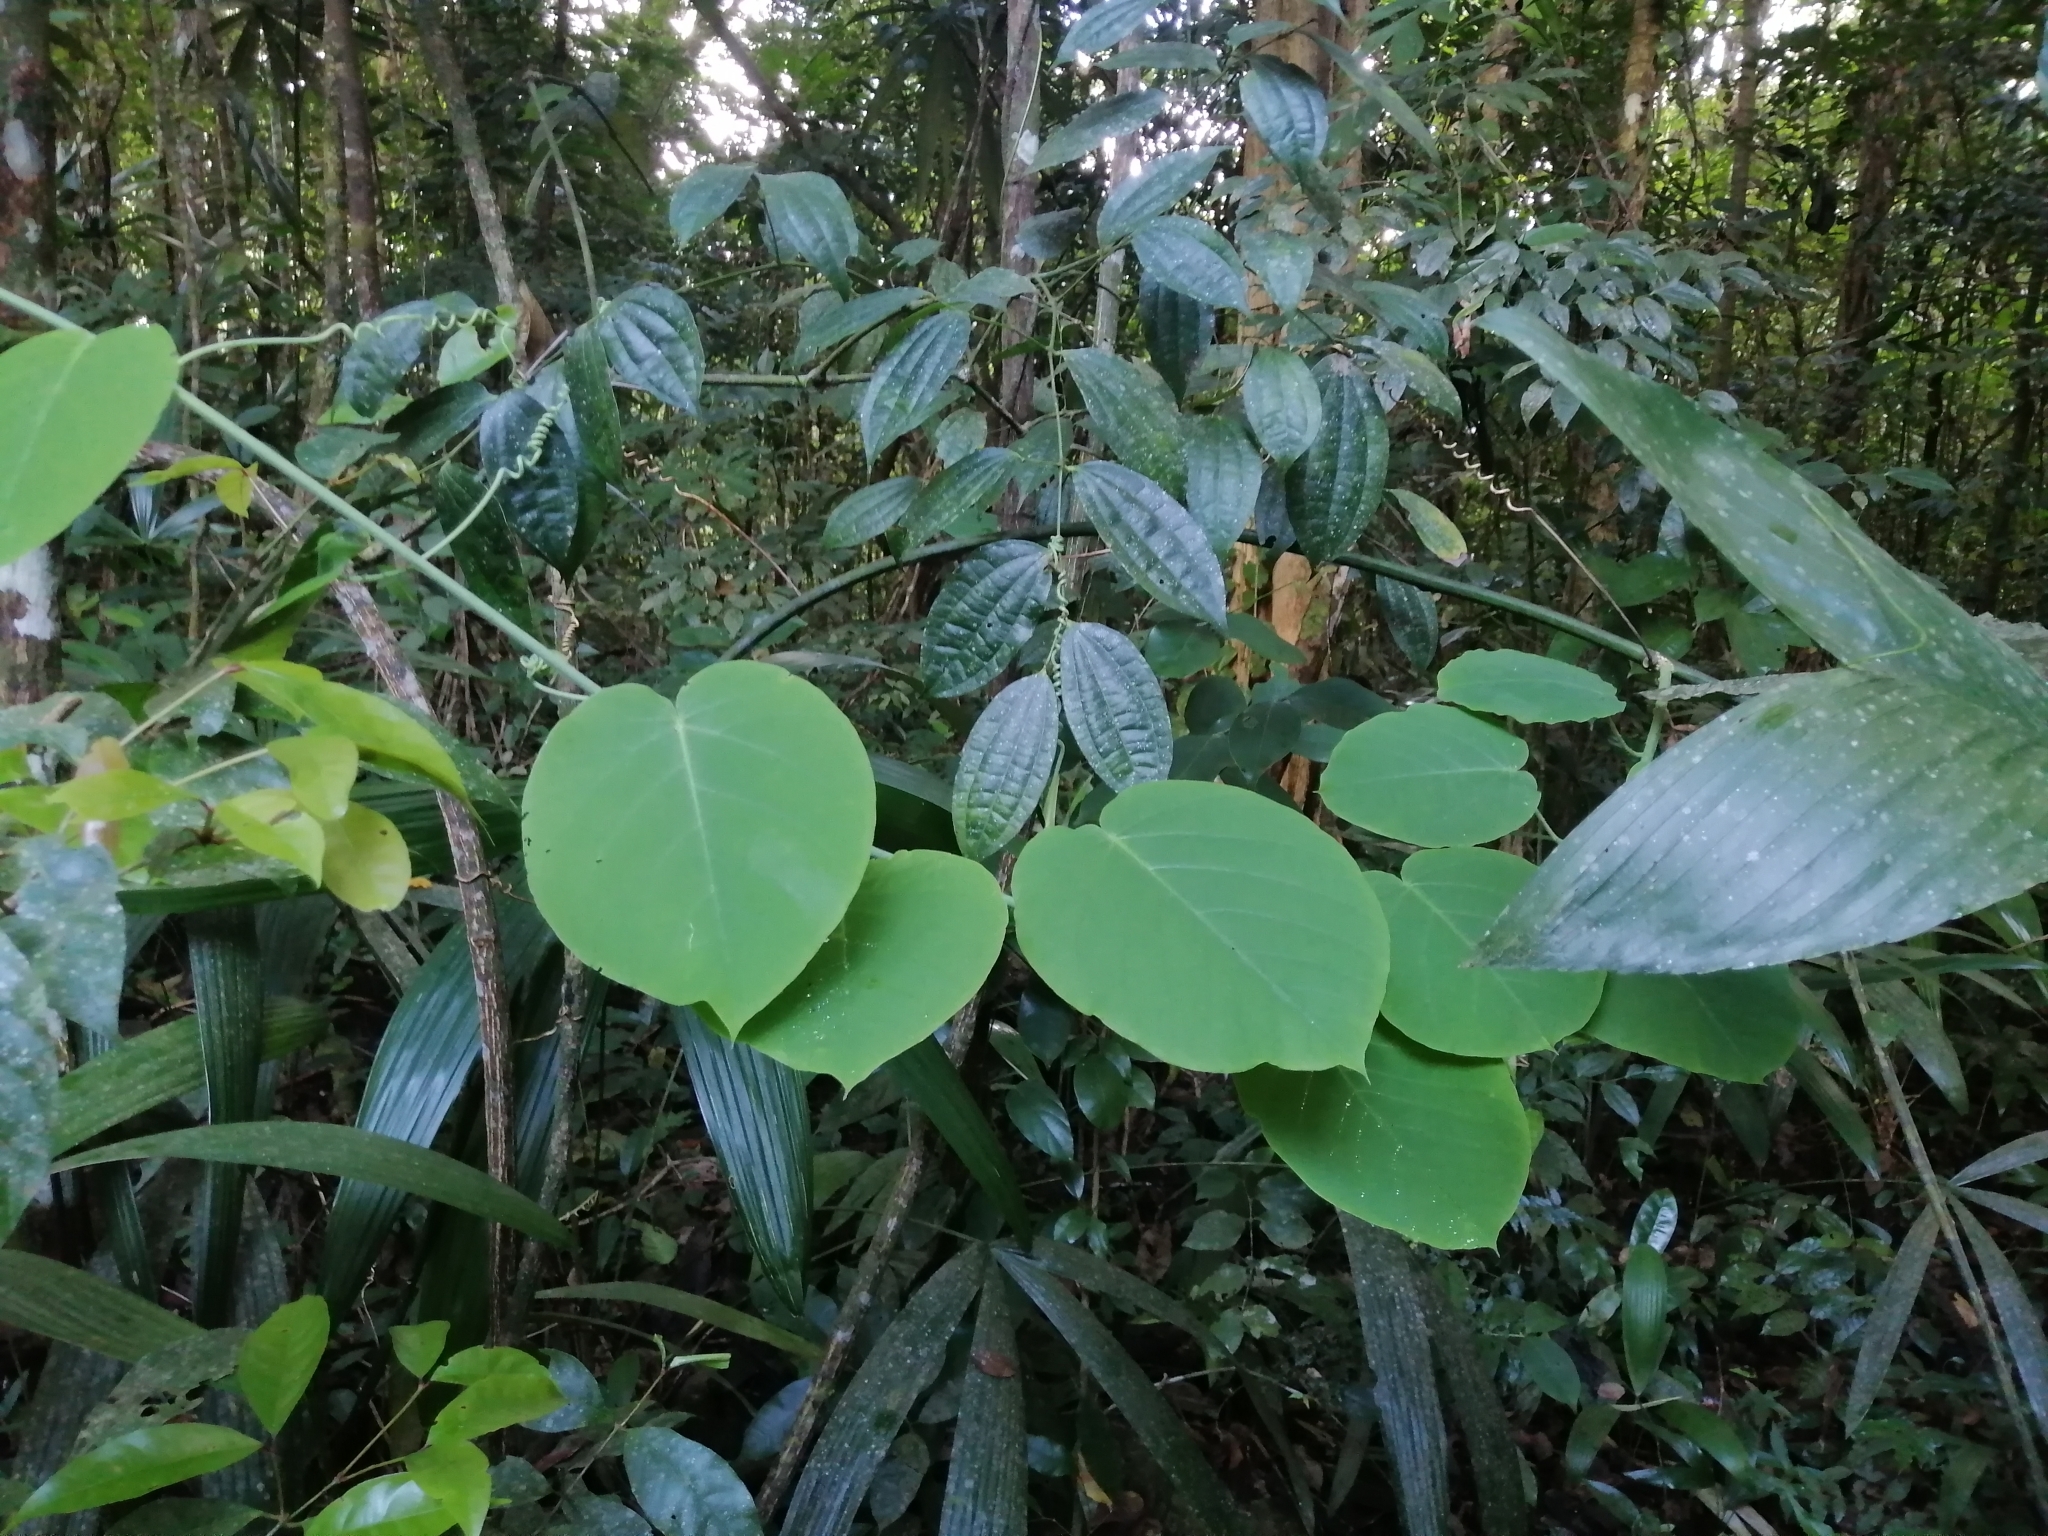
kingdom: Plantae
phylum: Tracheophyta
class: Magnoliopsida
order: Malpighiales
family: Passifloraceae
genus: Passiflora
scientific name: Passiflora lancetillensis
